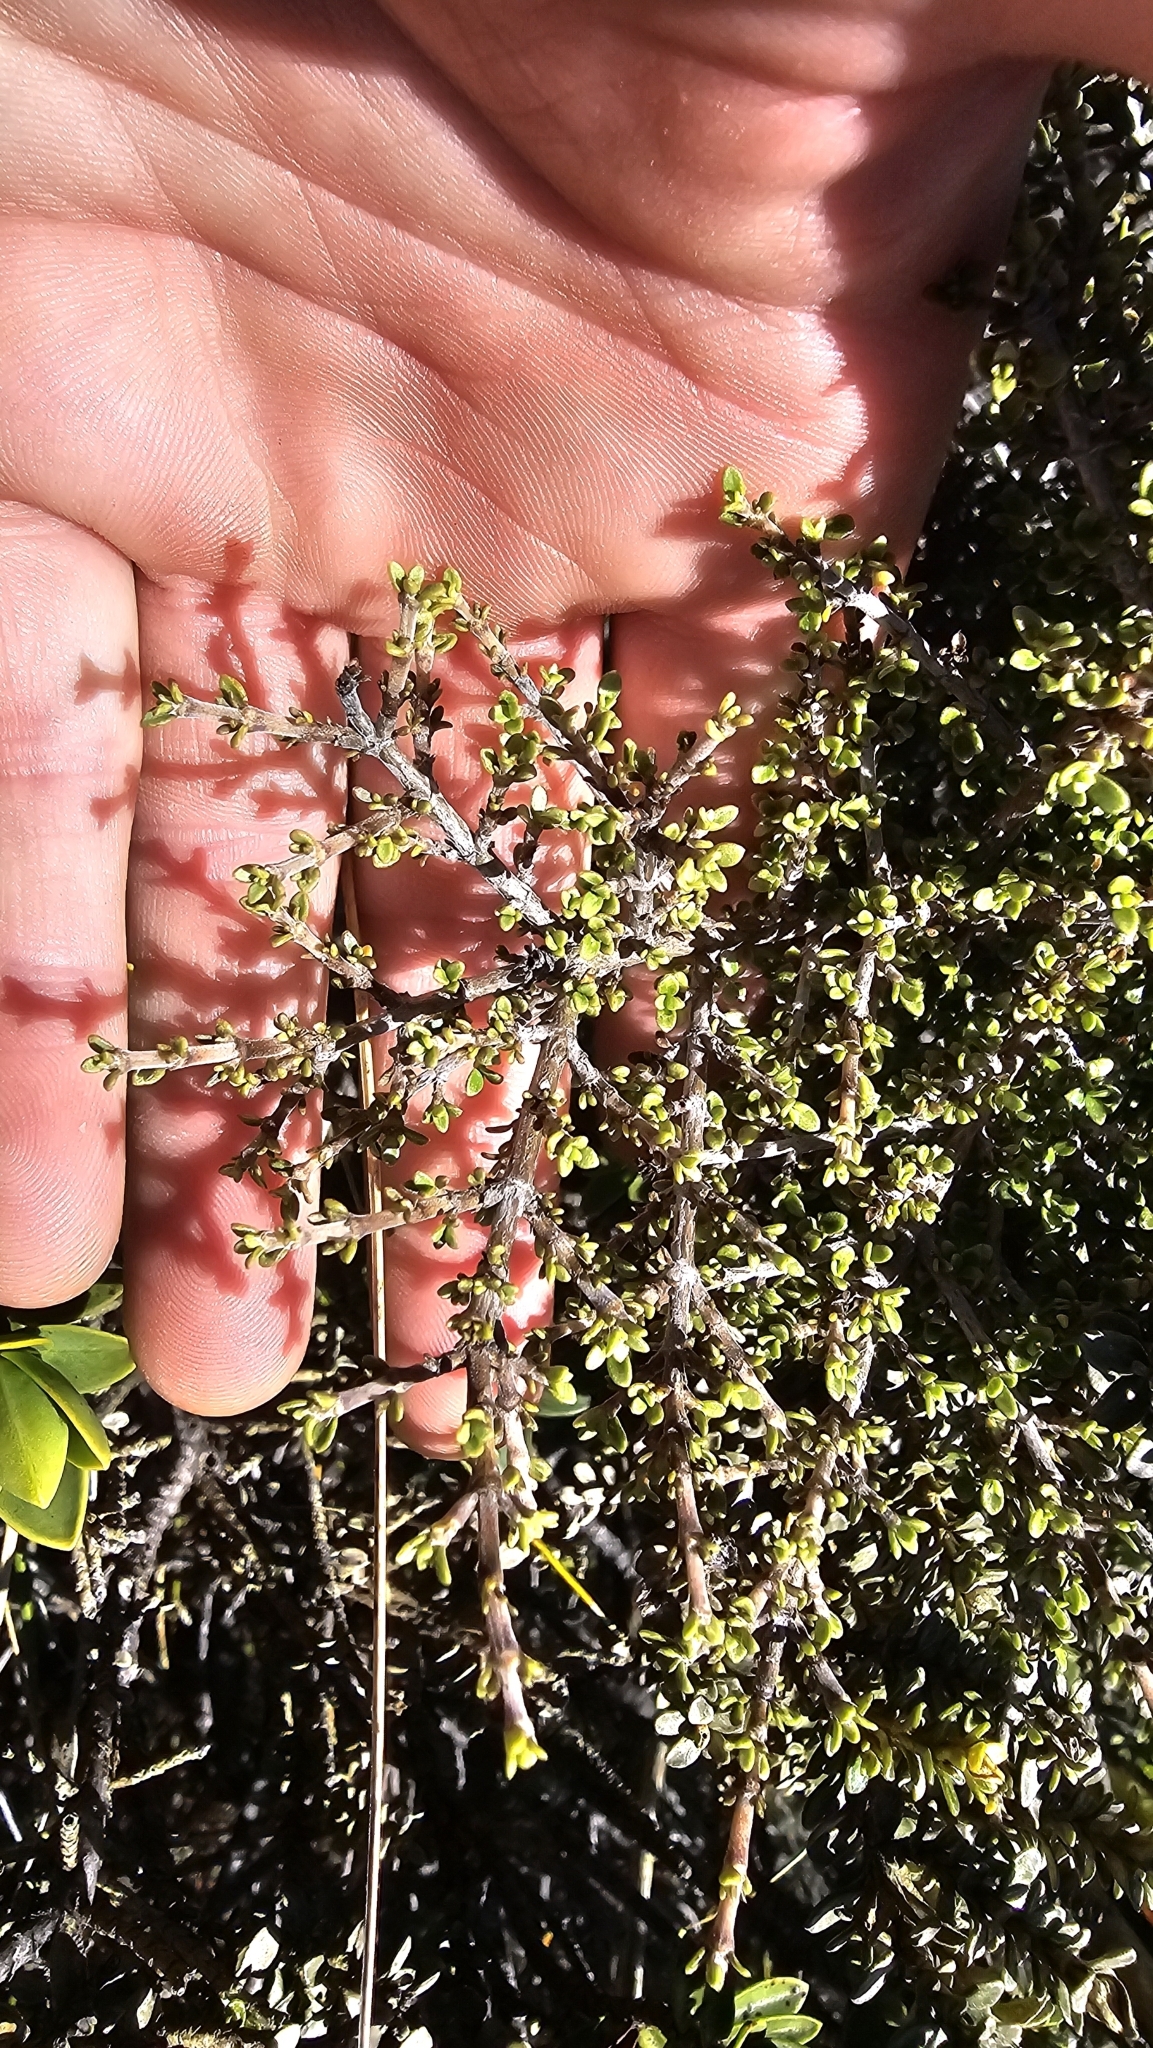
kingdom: Plantae
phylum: Tracheophyta
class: Magnoliopsida
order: Gentianales
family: Rubiaceae
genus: Coprosma
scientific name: Coprosma dumosa
